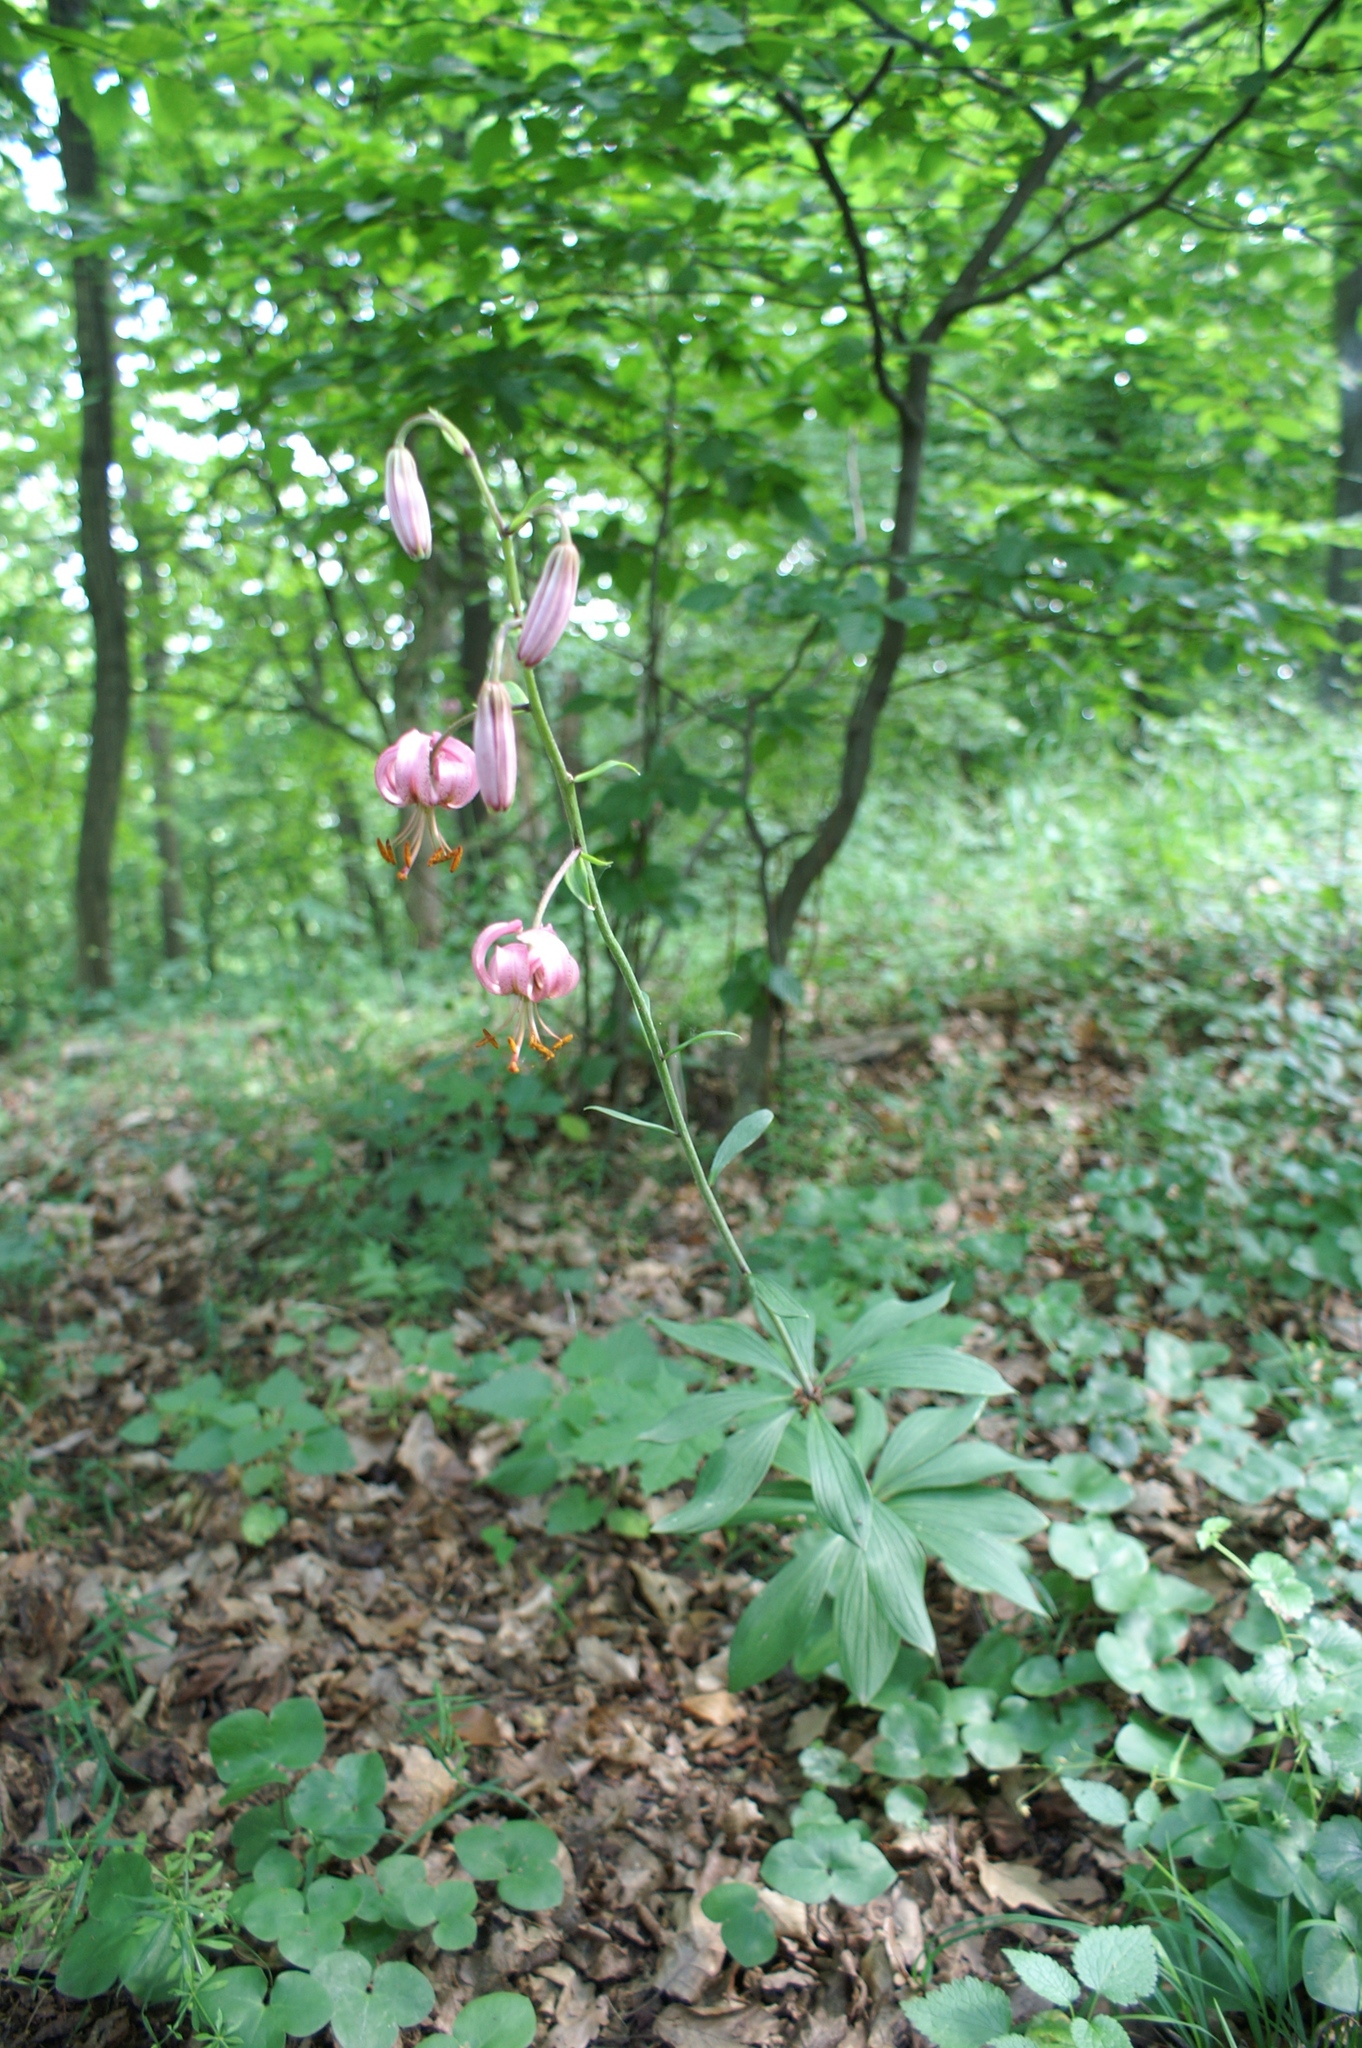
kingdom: Plantae
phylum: Tracheophyta
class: Liliopsida
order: Liliales
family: Liliaceae
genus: Lilium
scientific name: Lilium martagon
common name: Martagon lily
